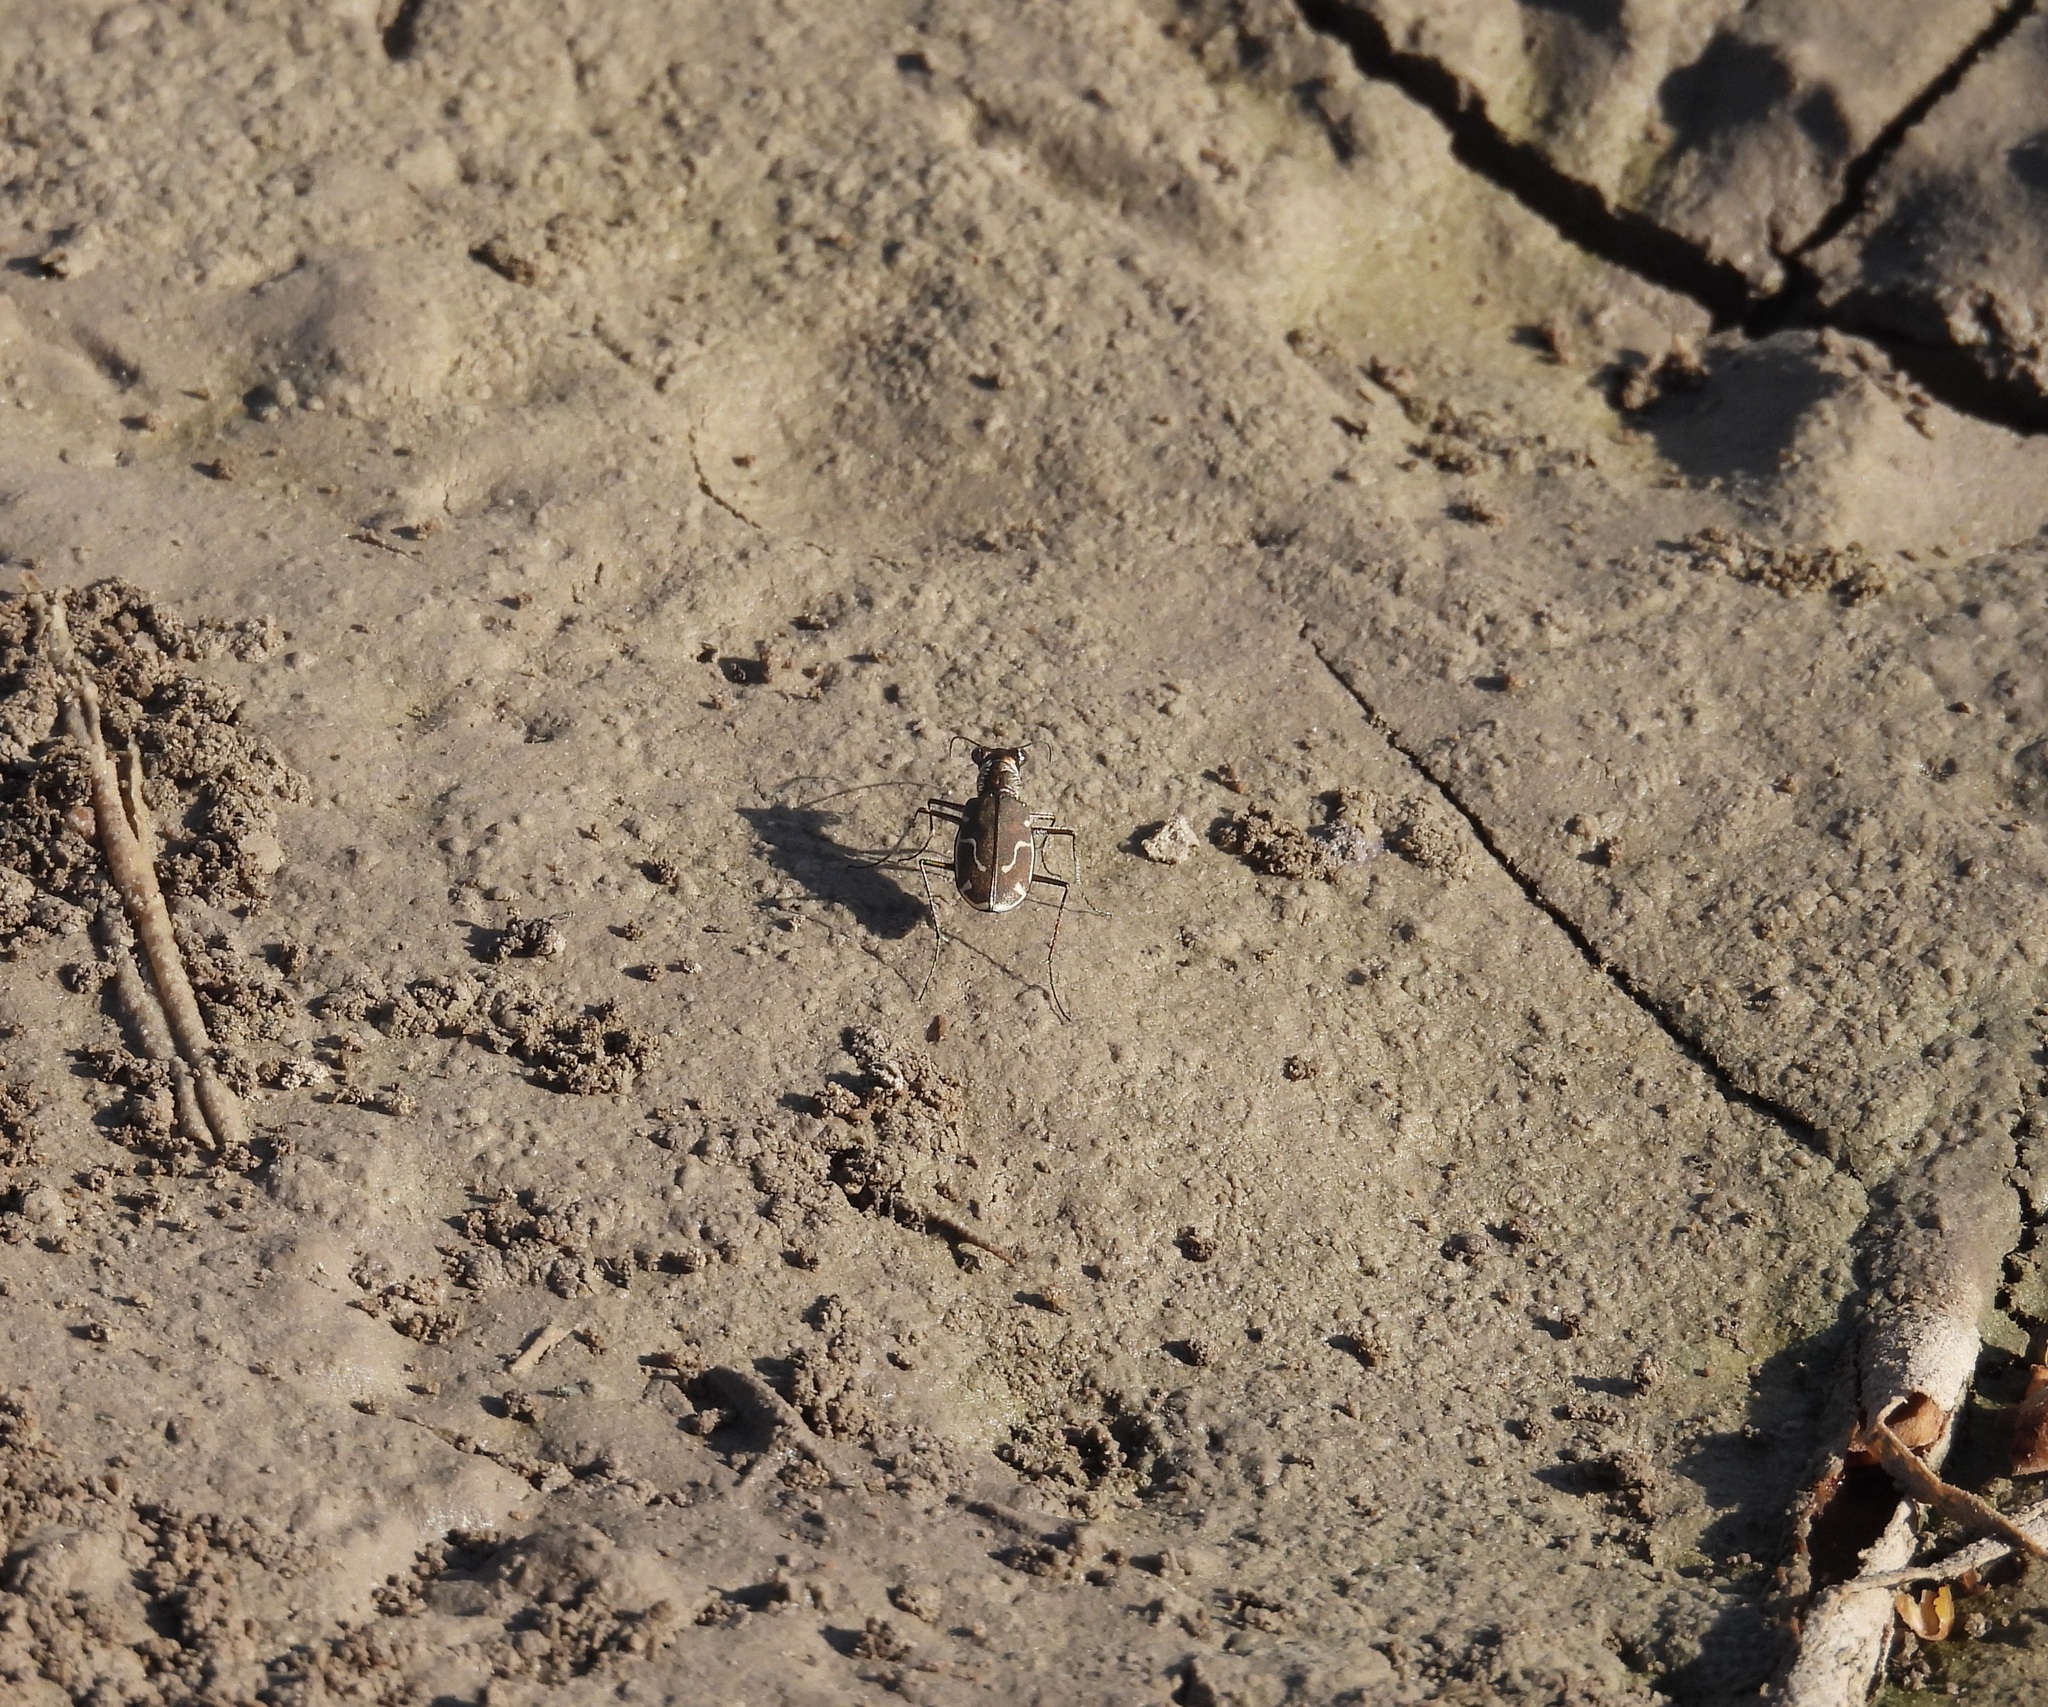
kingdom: Animalia
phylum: Arthropoda
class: Insecta
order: Coleoptera
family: Carabidae
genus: Cicindela
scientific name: Cicindela tenuisignata
